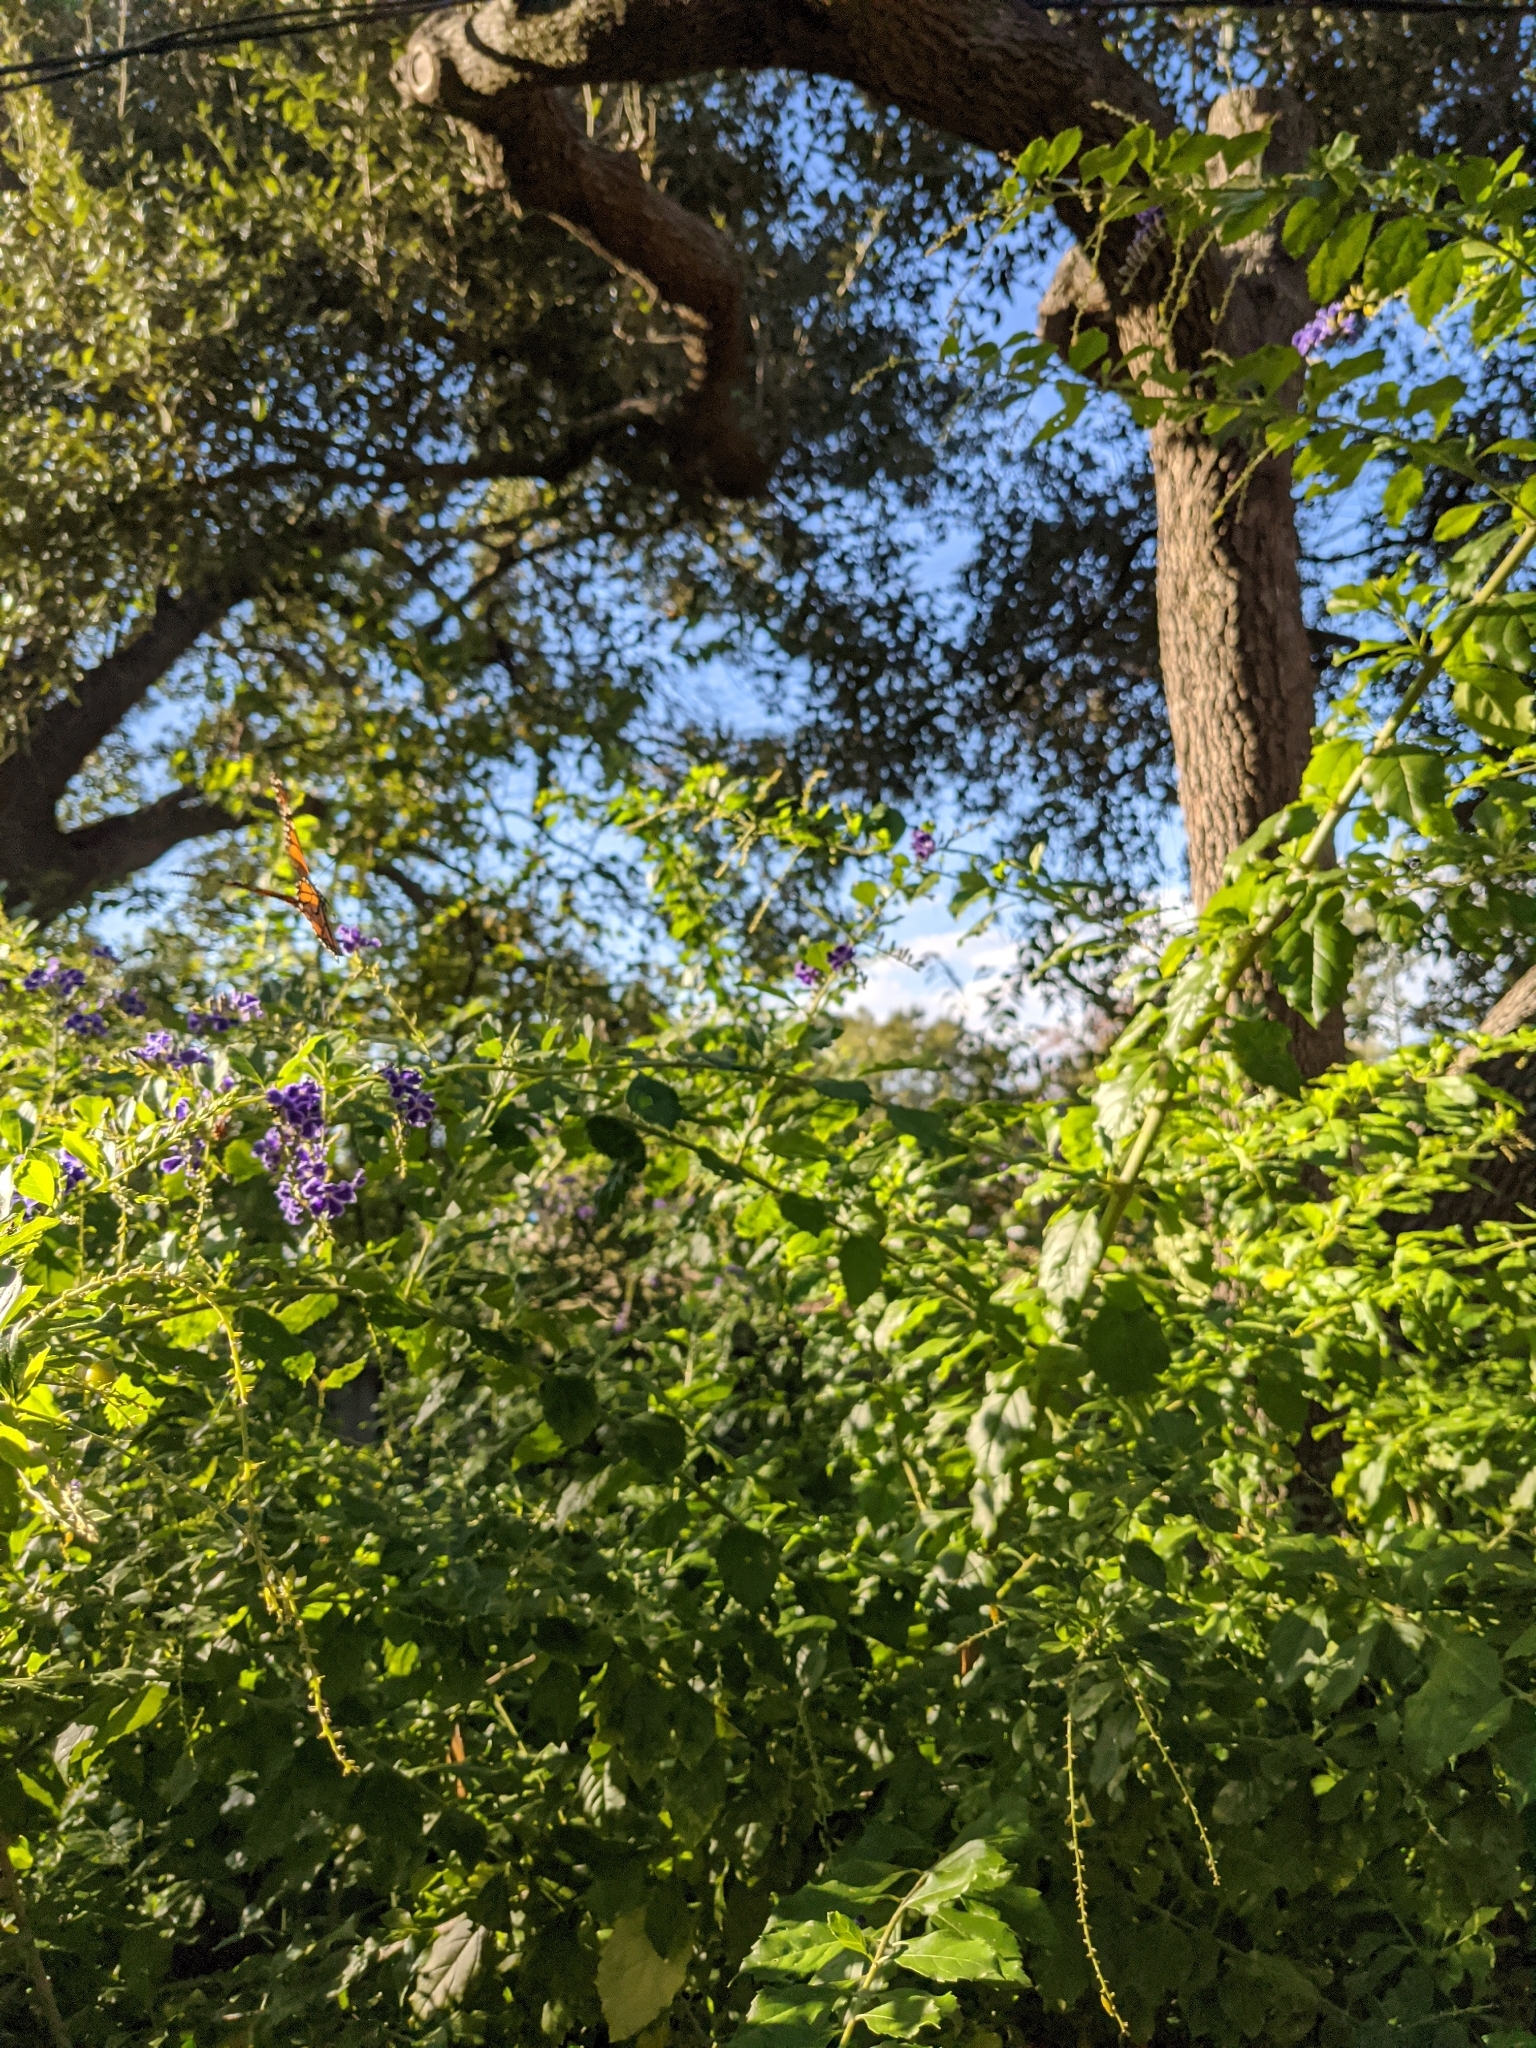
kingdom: Animalia
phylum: Arthropoda
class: Insecta
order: Lepidoptera
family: Nymphalidae
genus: Danaus
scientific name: Danaus plexippus
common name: Monarch
